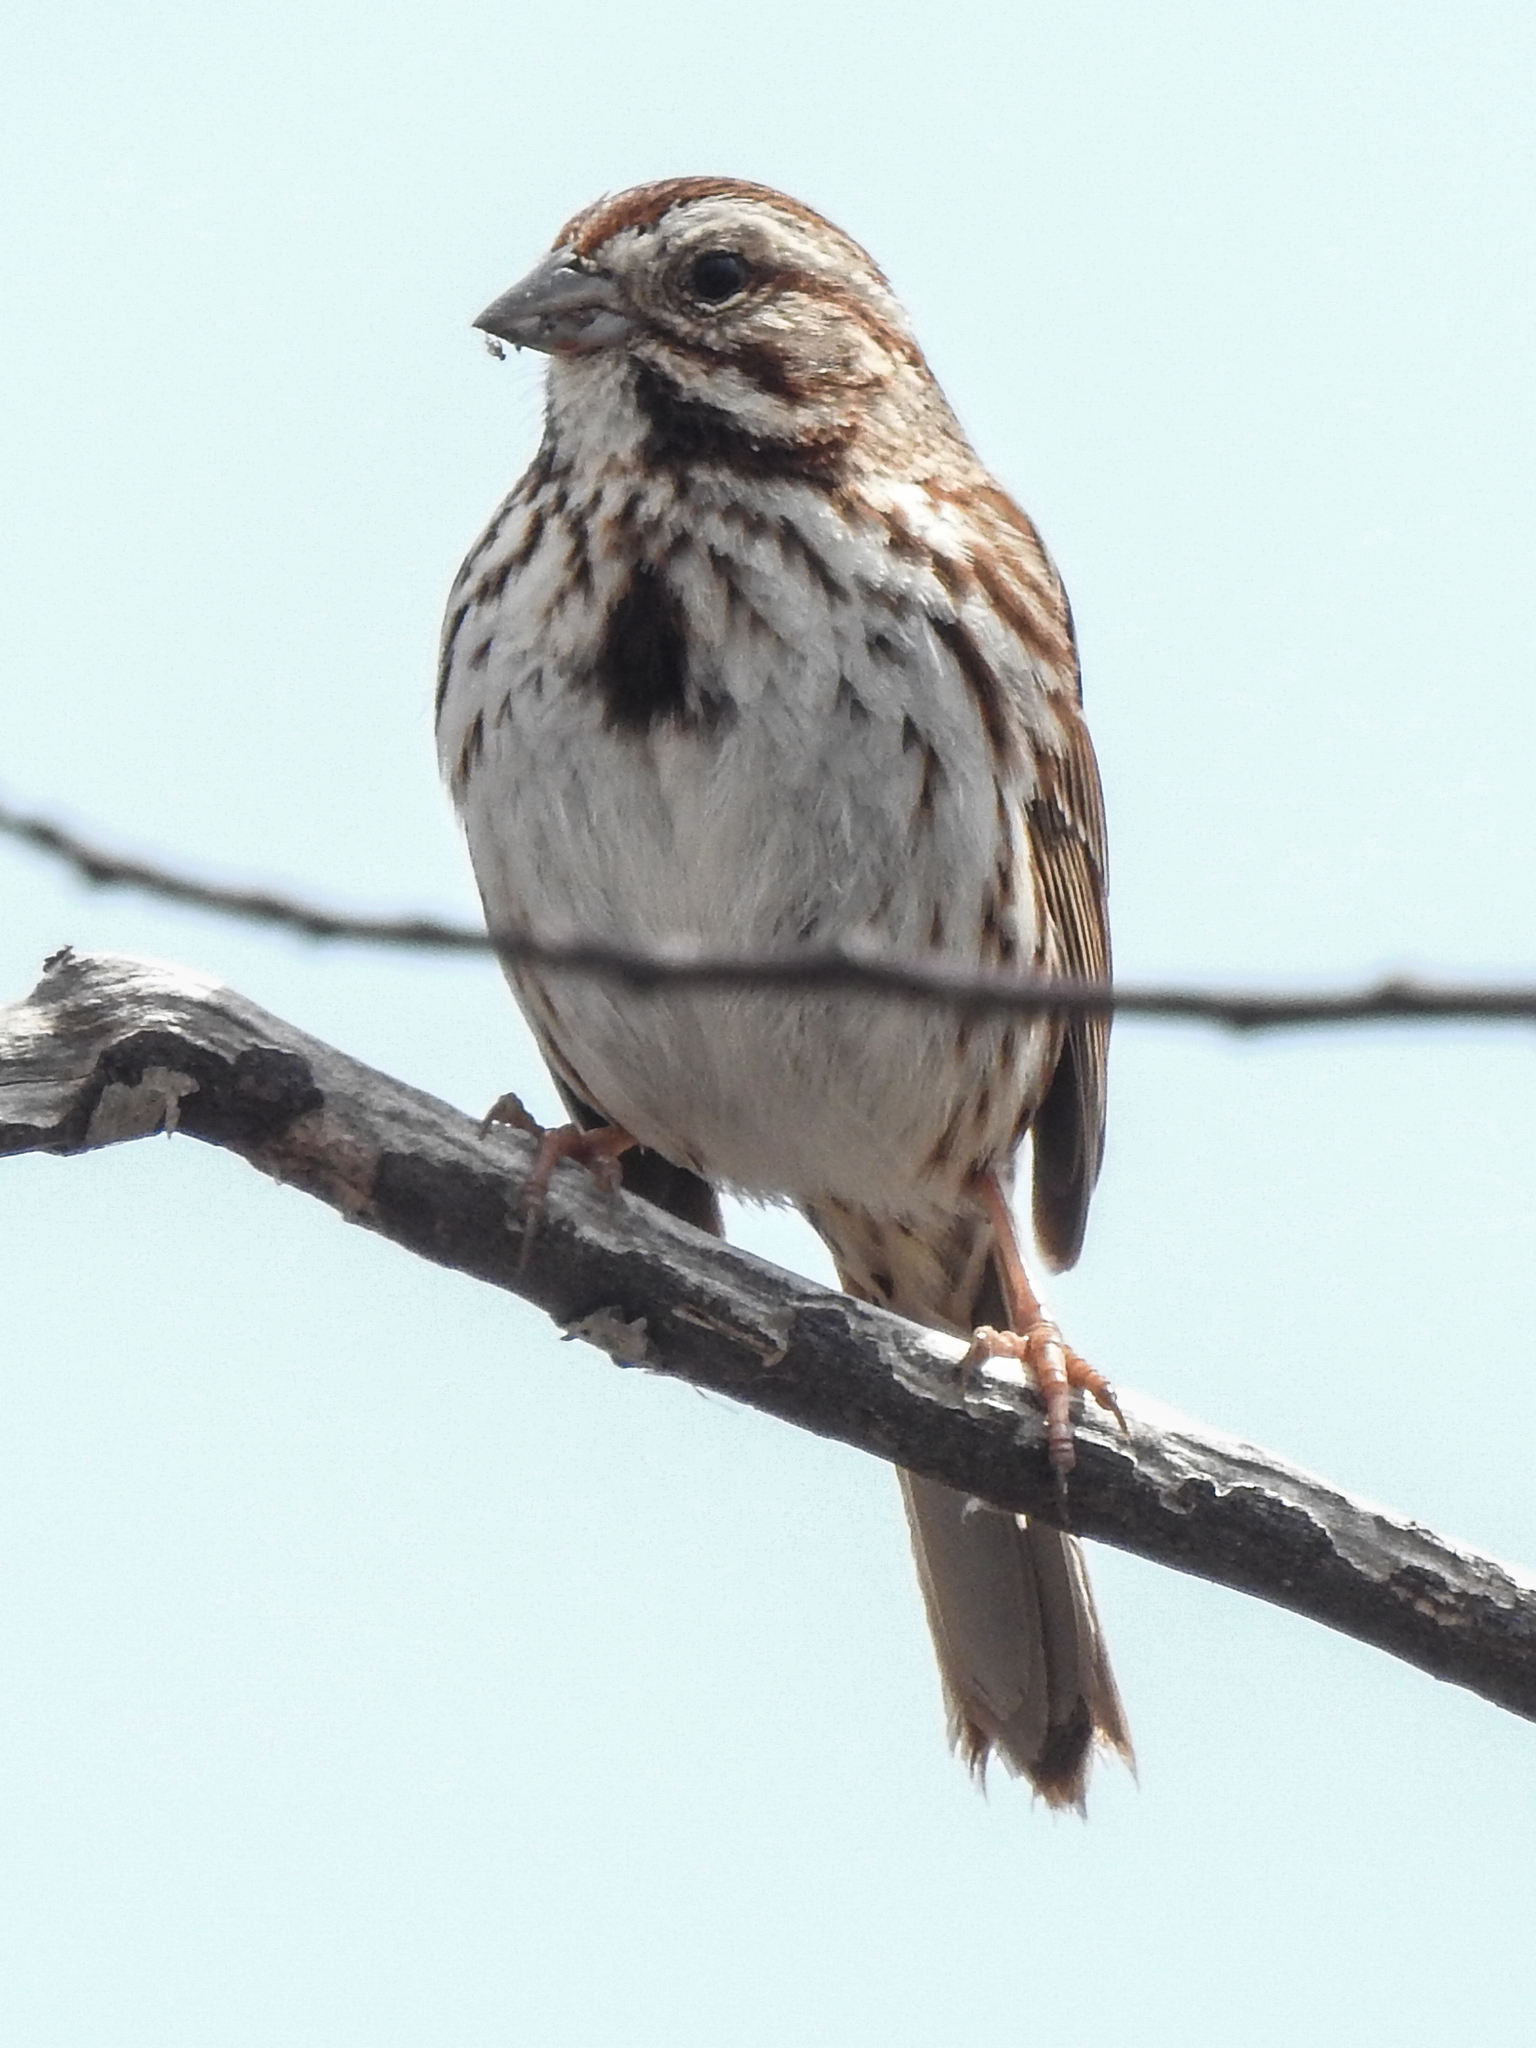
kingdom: Animalia
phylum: Chordata
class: Aves
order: Passeriformes
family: Passerellidae
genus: Melospiza
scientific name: Melospiza melodia
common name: Song sparrow
